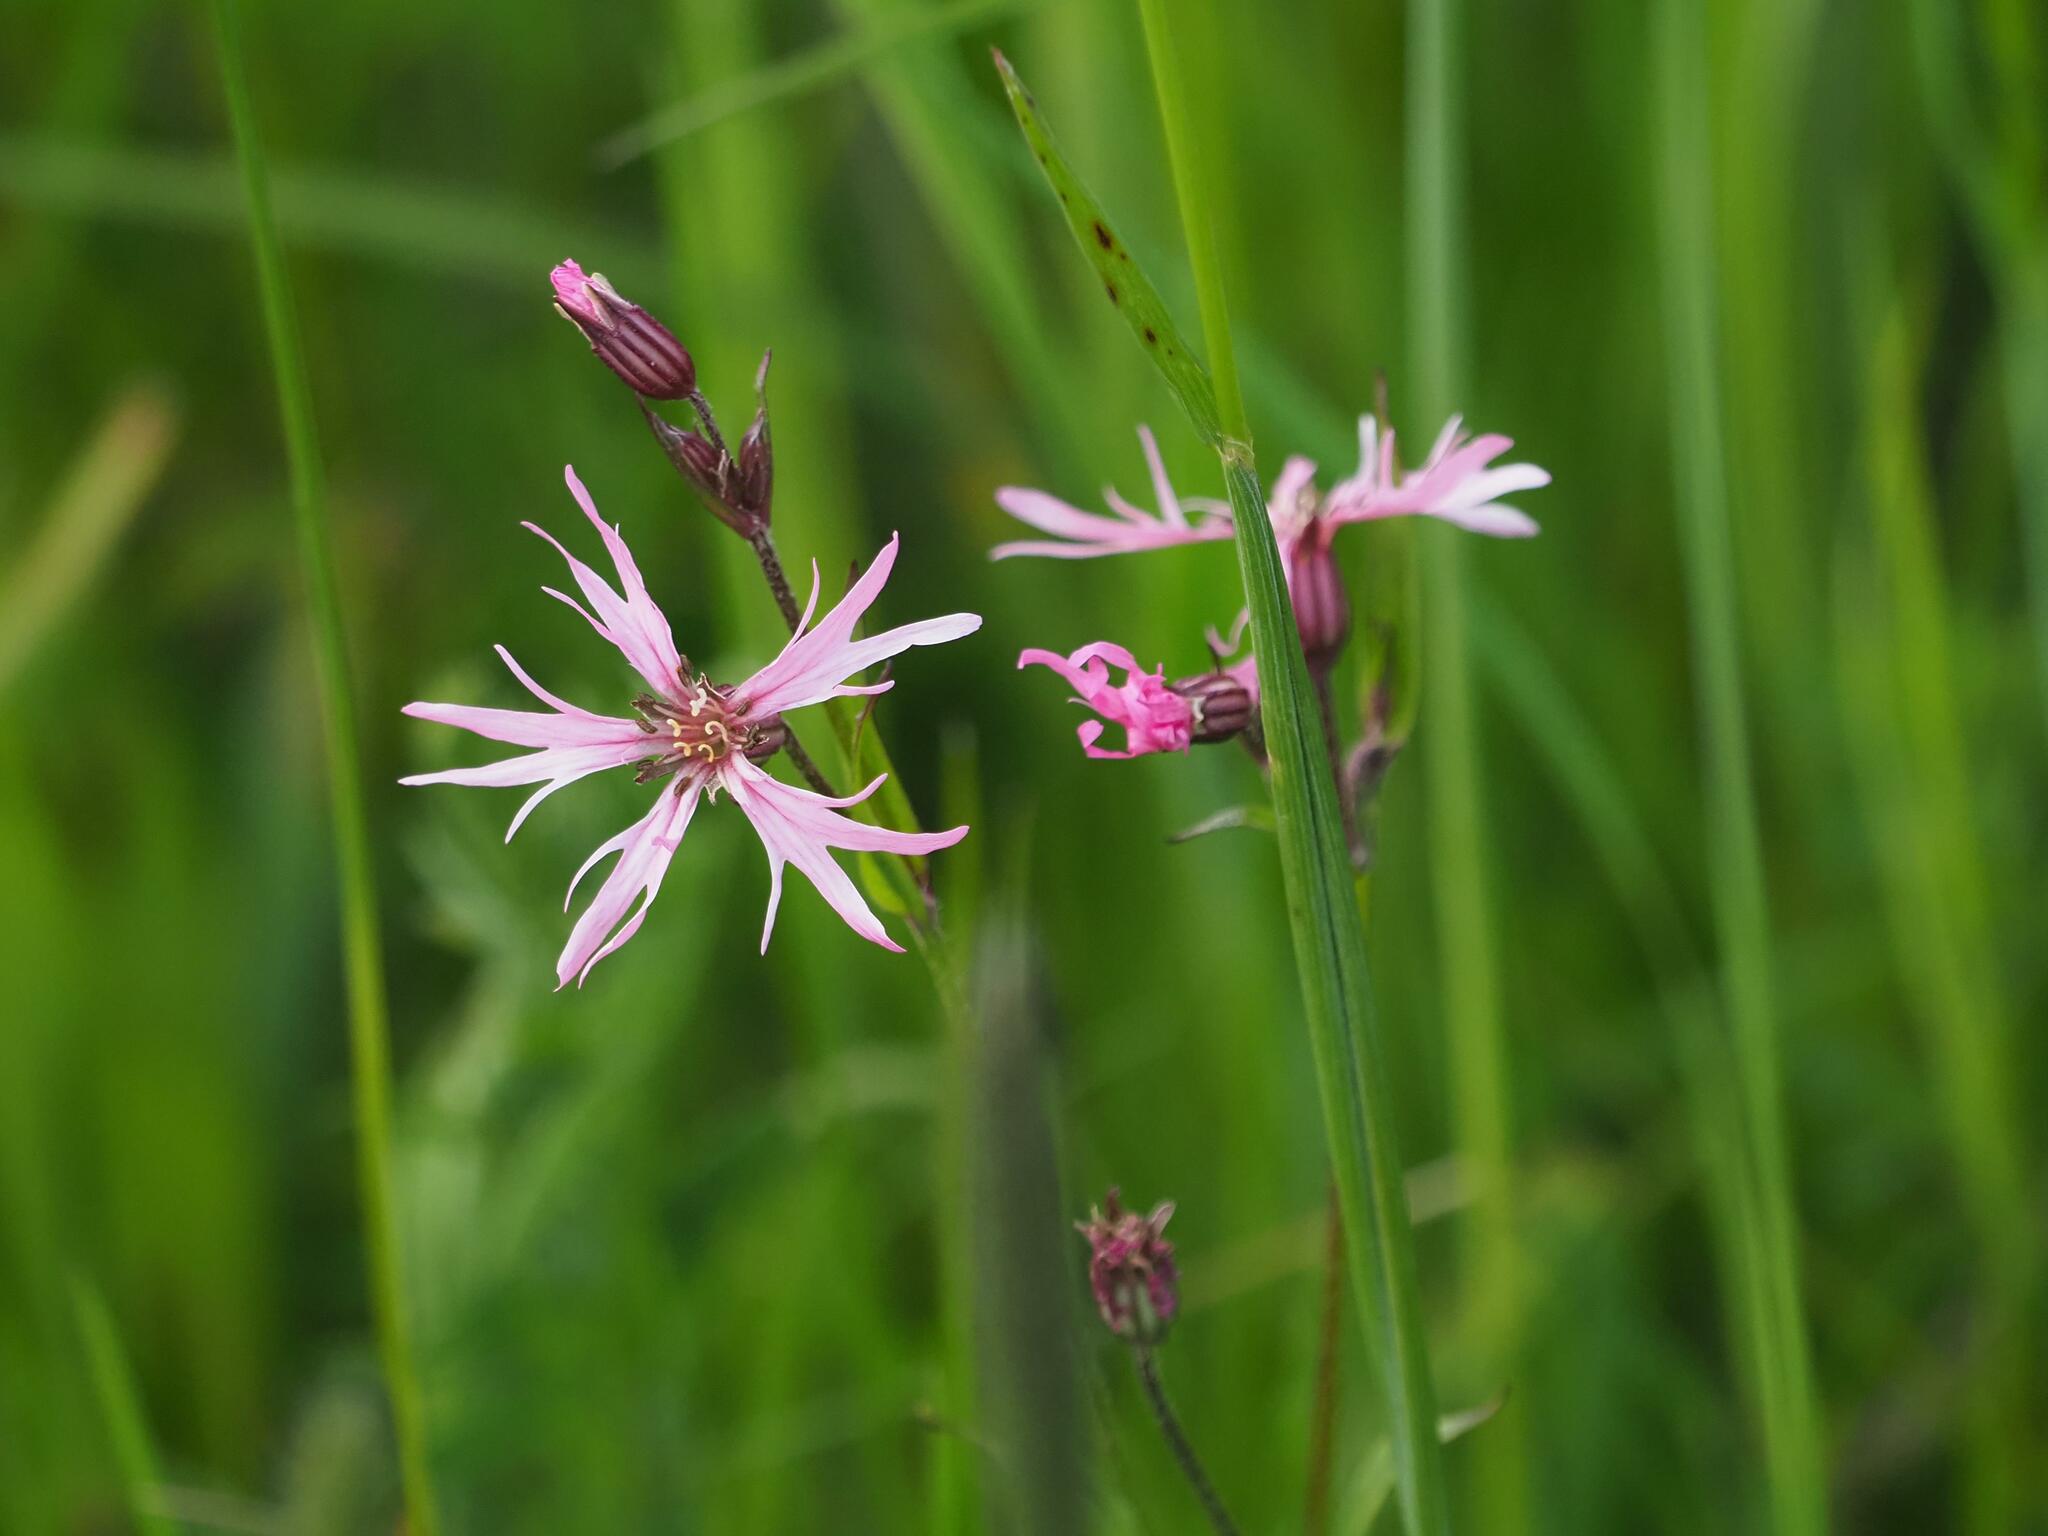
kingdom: Plantae
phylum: Tracheophyta
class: Magnoliopsida
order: Caryophyllales
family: Caryophyllaceae
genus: Silene
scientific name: Silene flos-cuculi
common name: Ragged-robin
